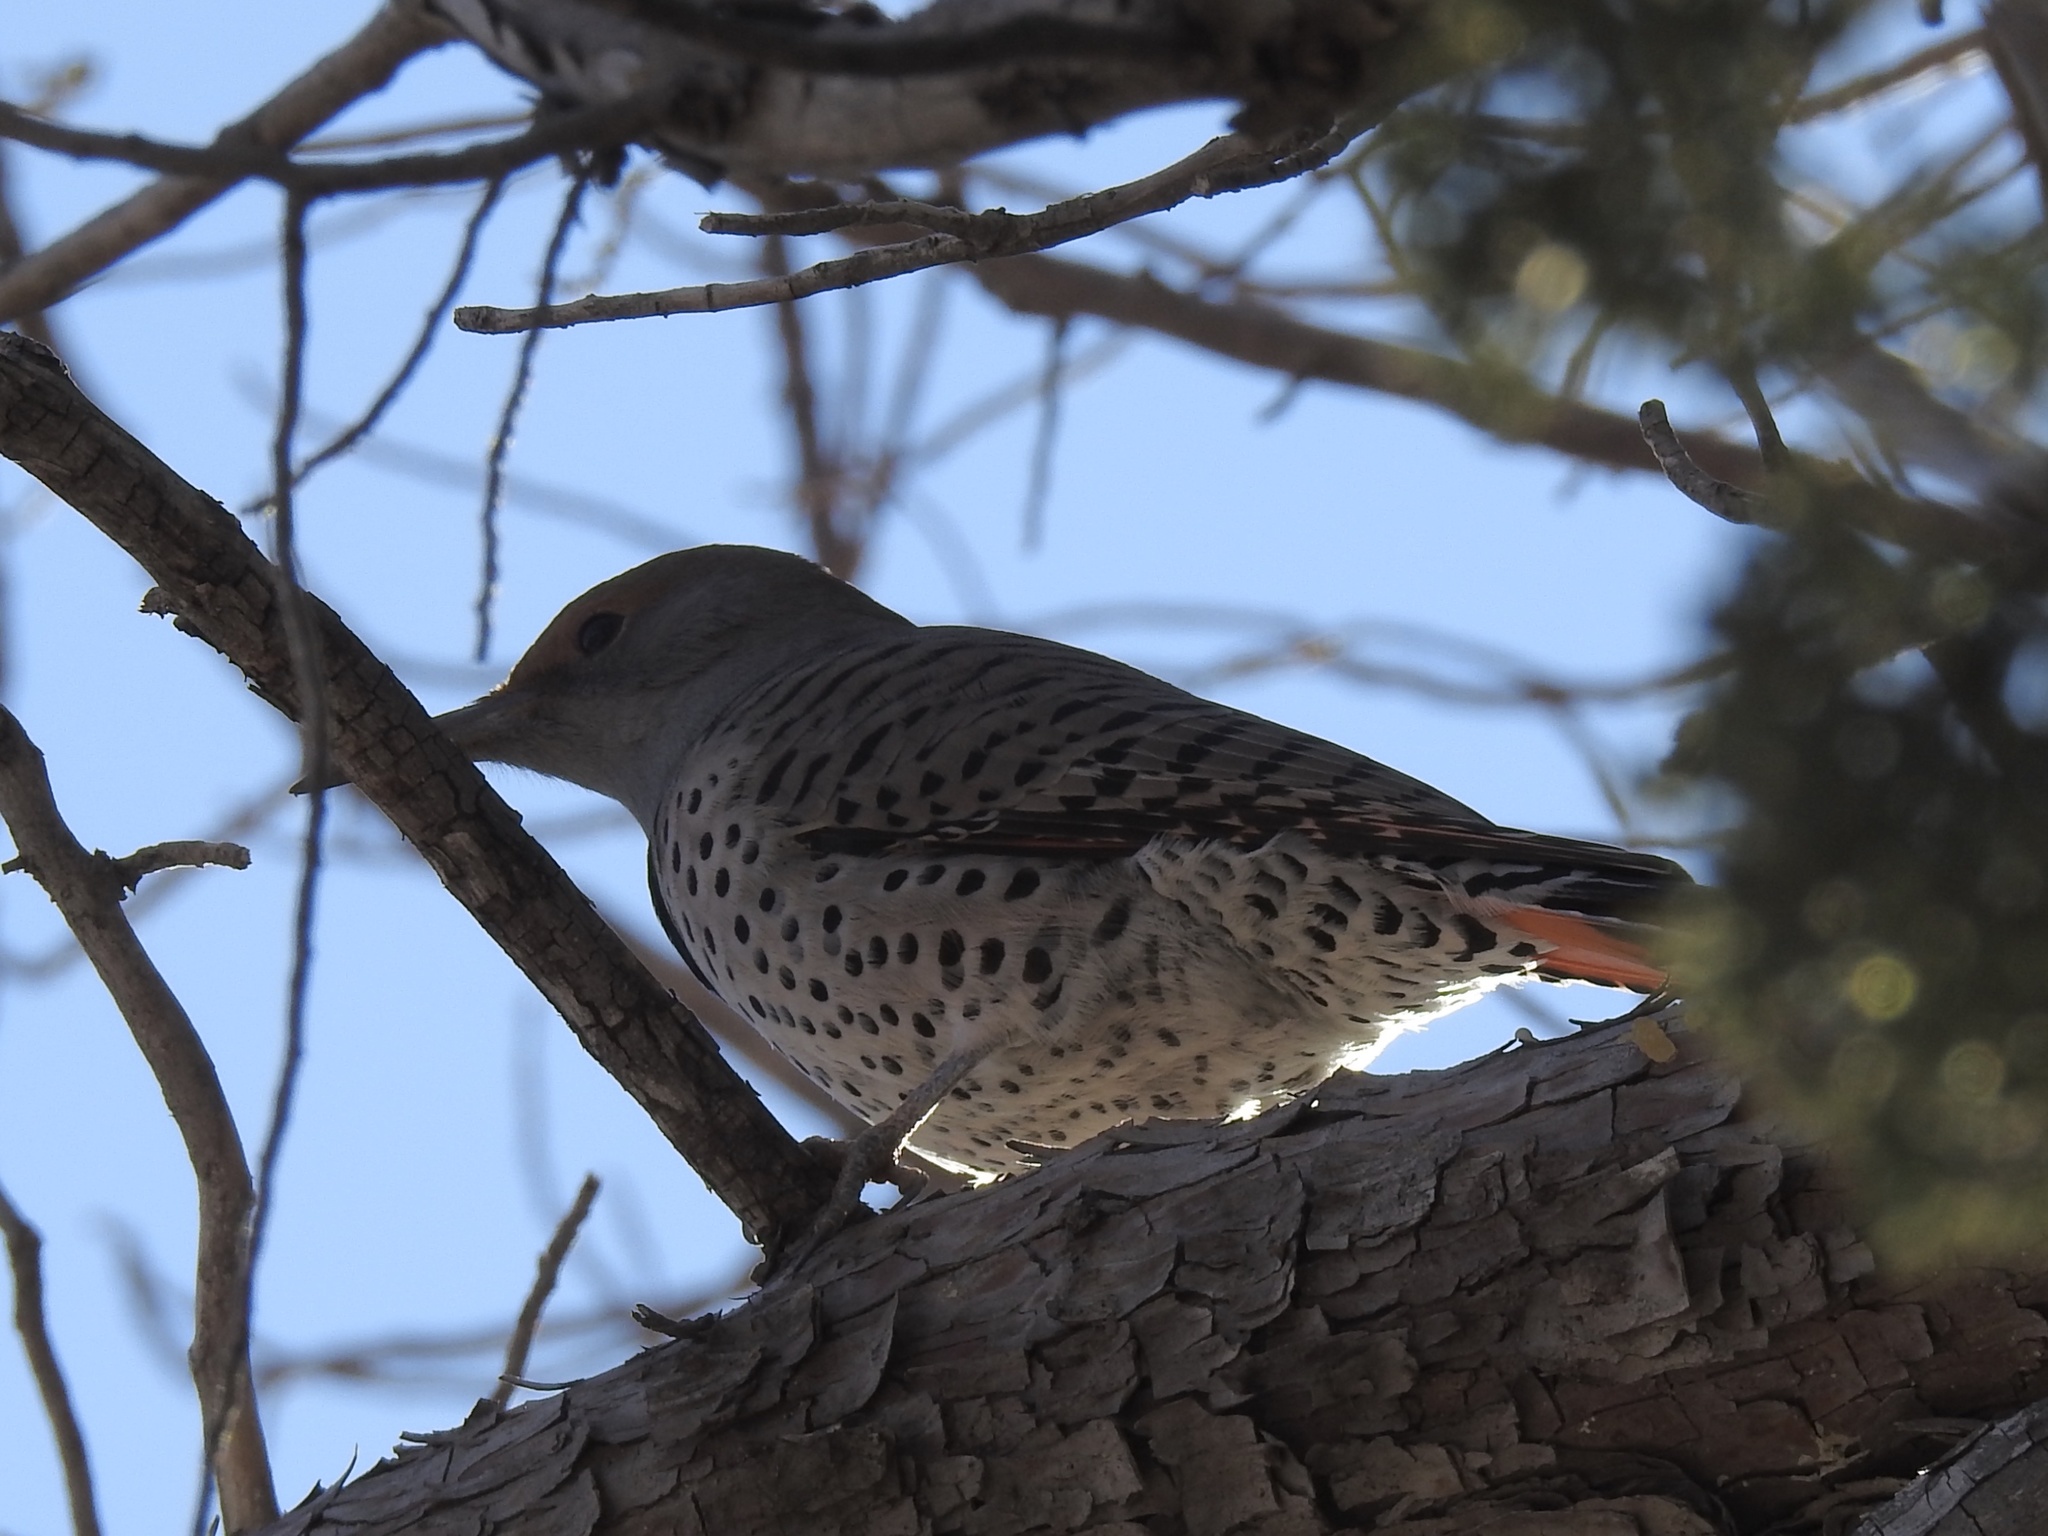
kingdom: Animalia
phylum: Chordata
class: Aves
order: Piciformes
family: Picidae
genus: Colaptes
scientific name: Colaptes auratus
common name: Northern flicker
